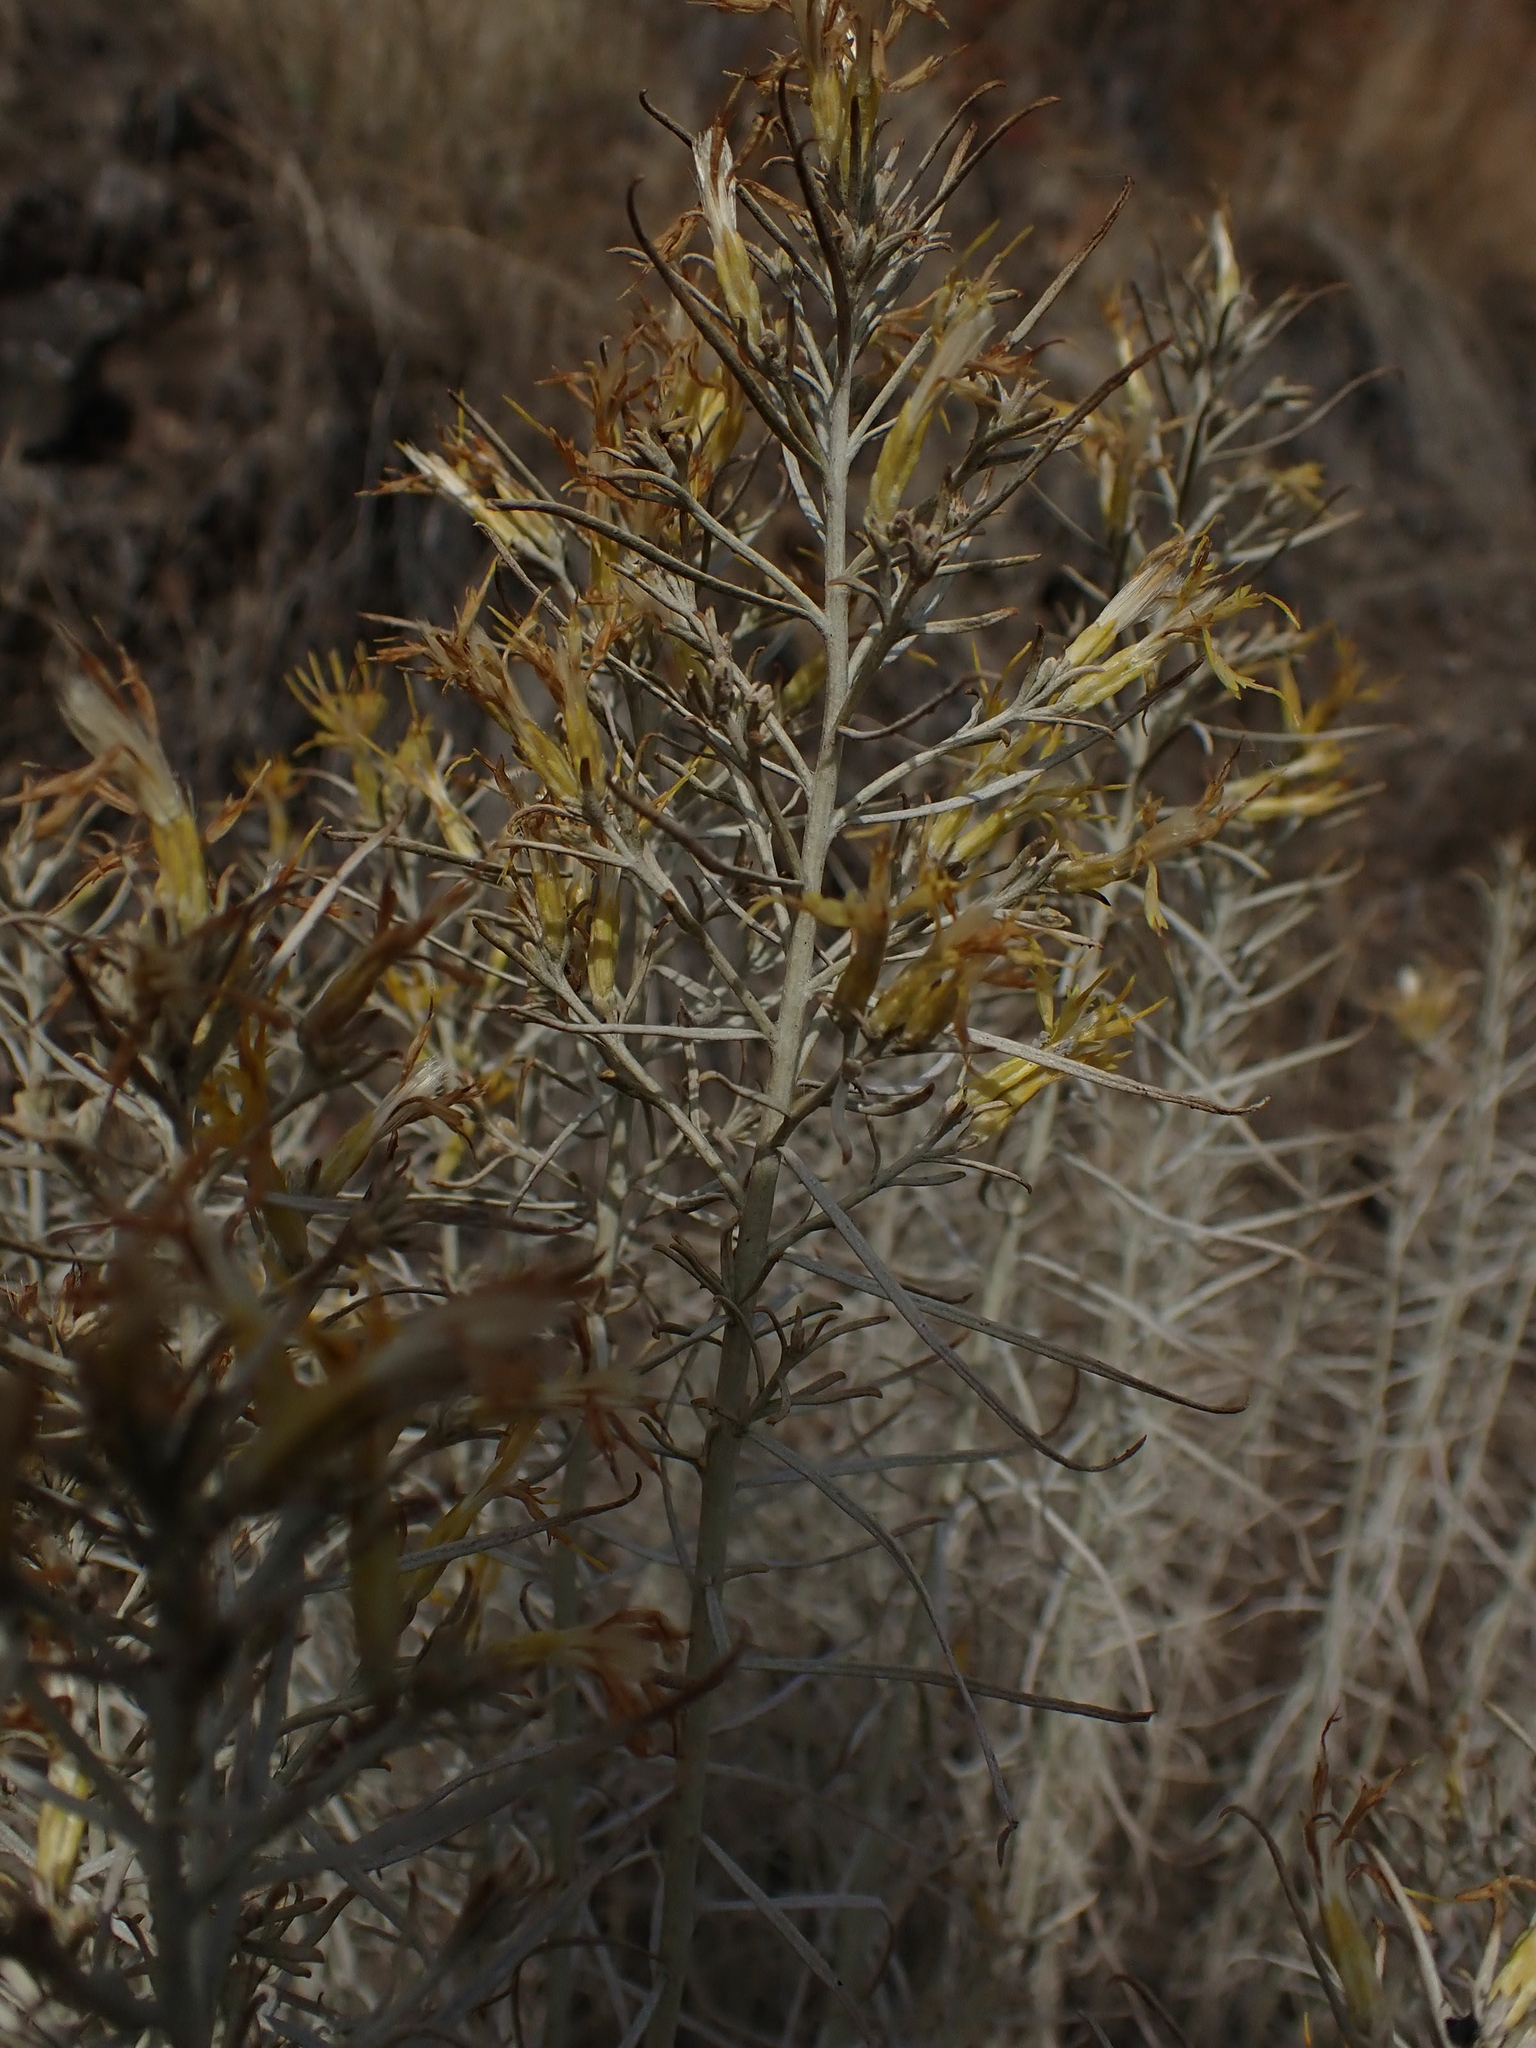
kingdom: Plantae
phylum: Tracheophyta
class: Magnoliopsida
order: Asterales
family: Asteraceae
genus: Ericameria
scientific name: Ericameria nauseosa
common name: Rubber rabbitbrush
